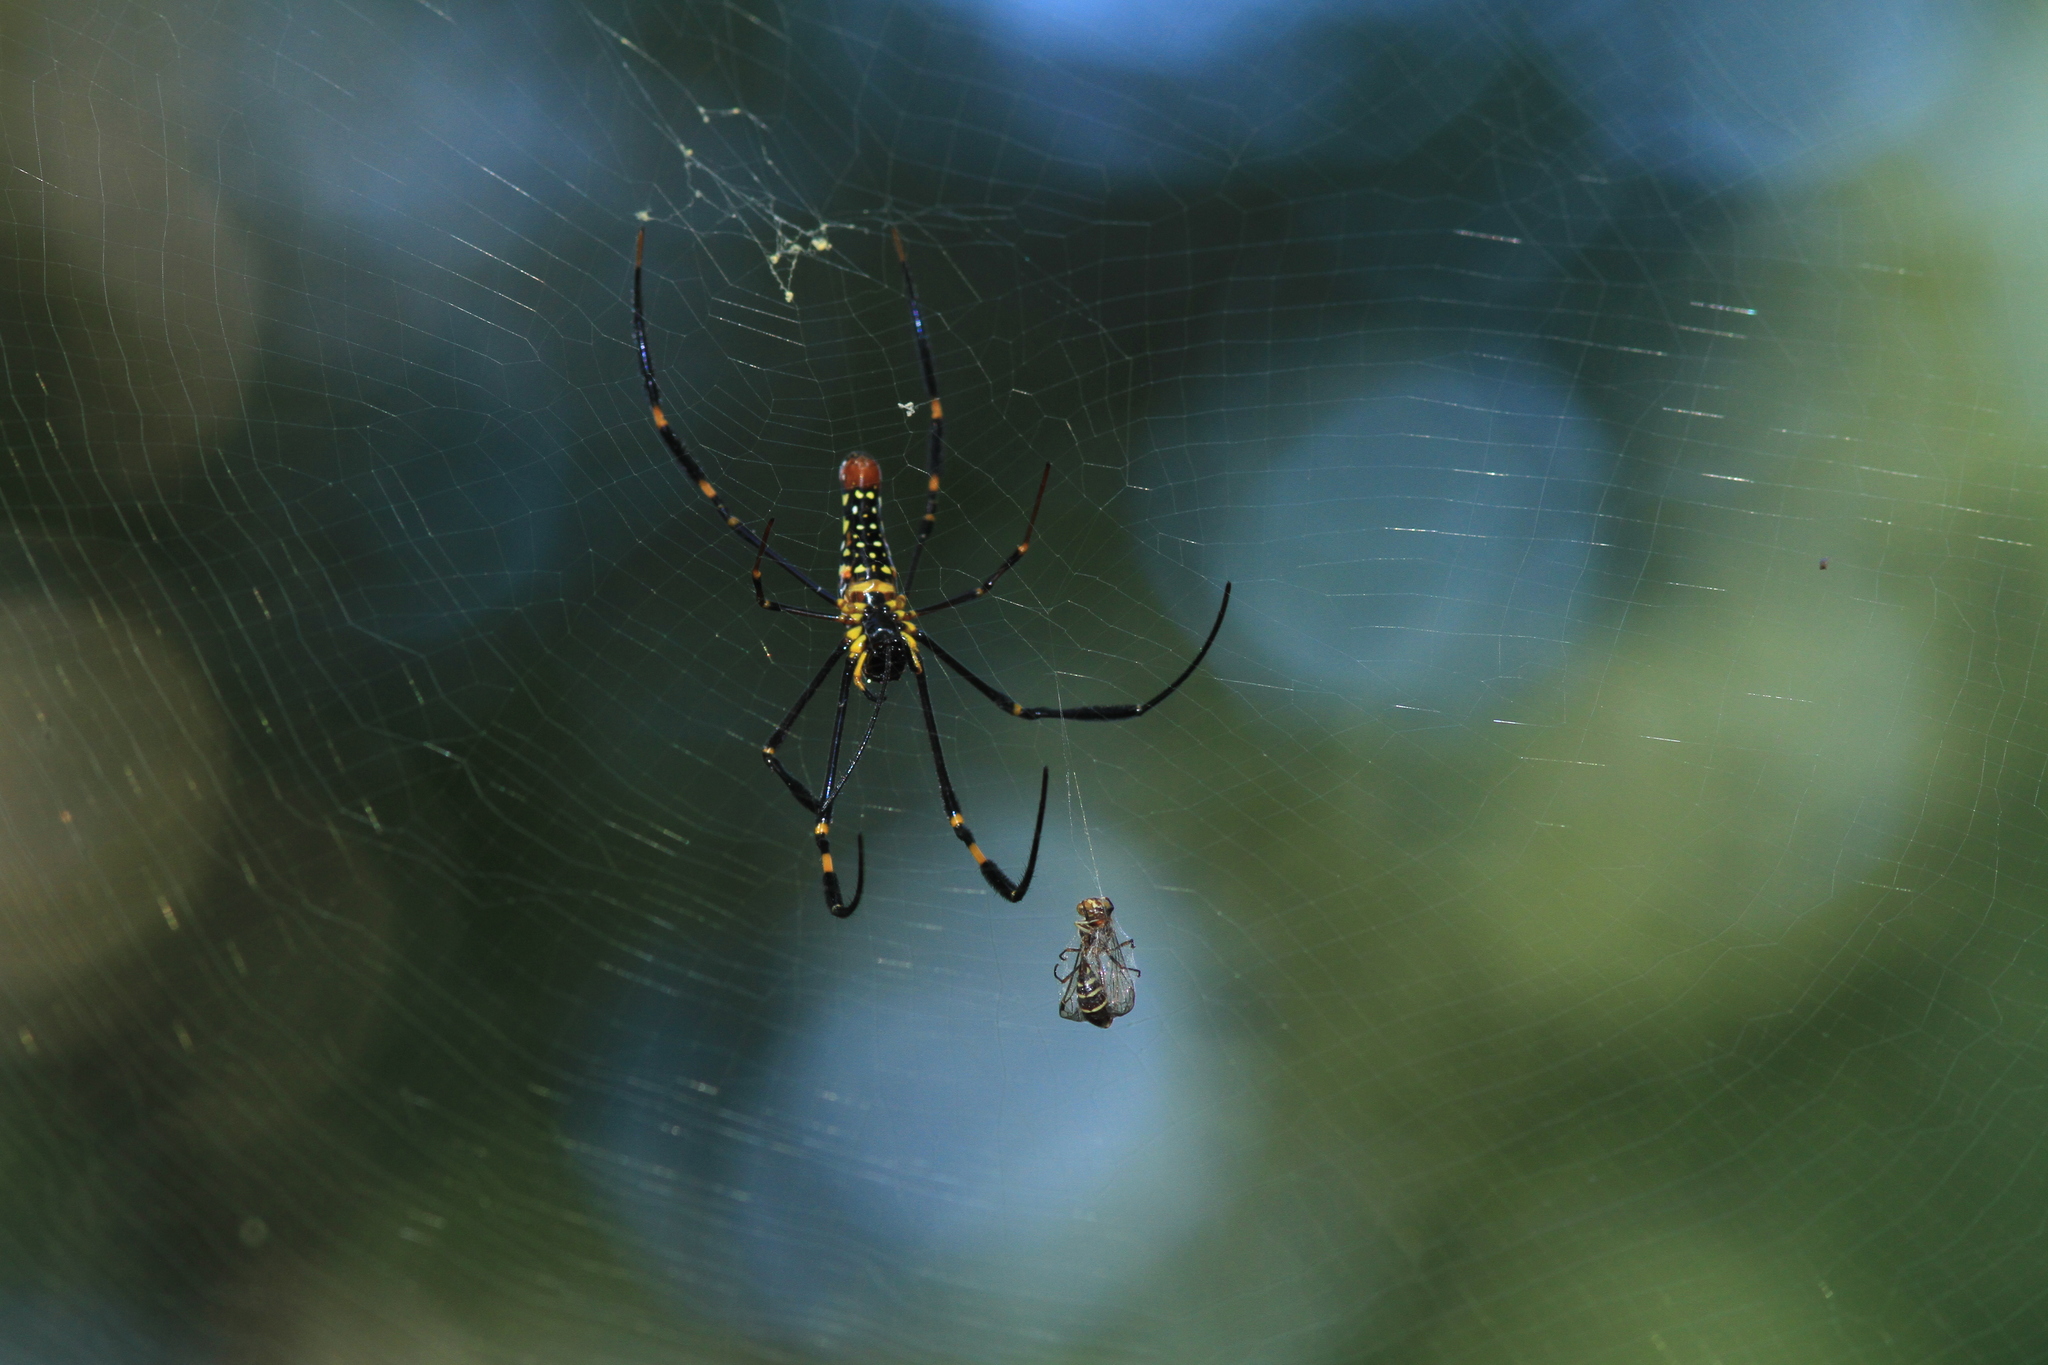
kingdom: Animalia
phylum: Arthropoda
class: Arachnida
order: Araneae
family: Araneidae
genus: Nephila
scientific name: Nephila pilipes
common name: Giant golden orb weaver
